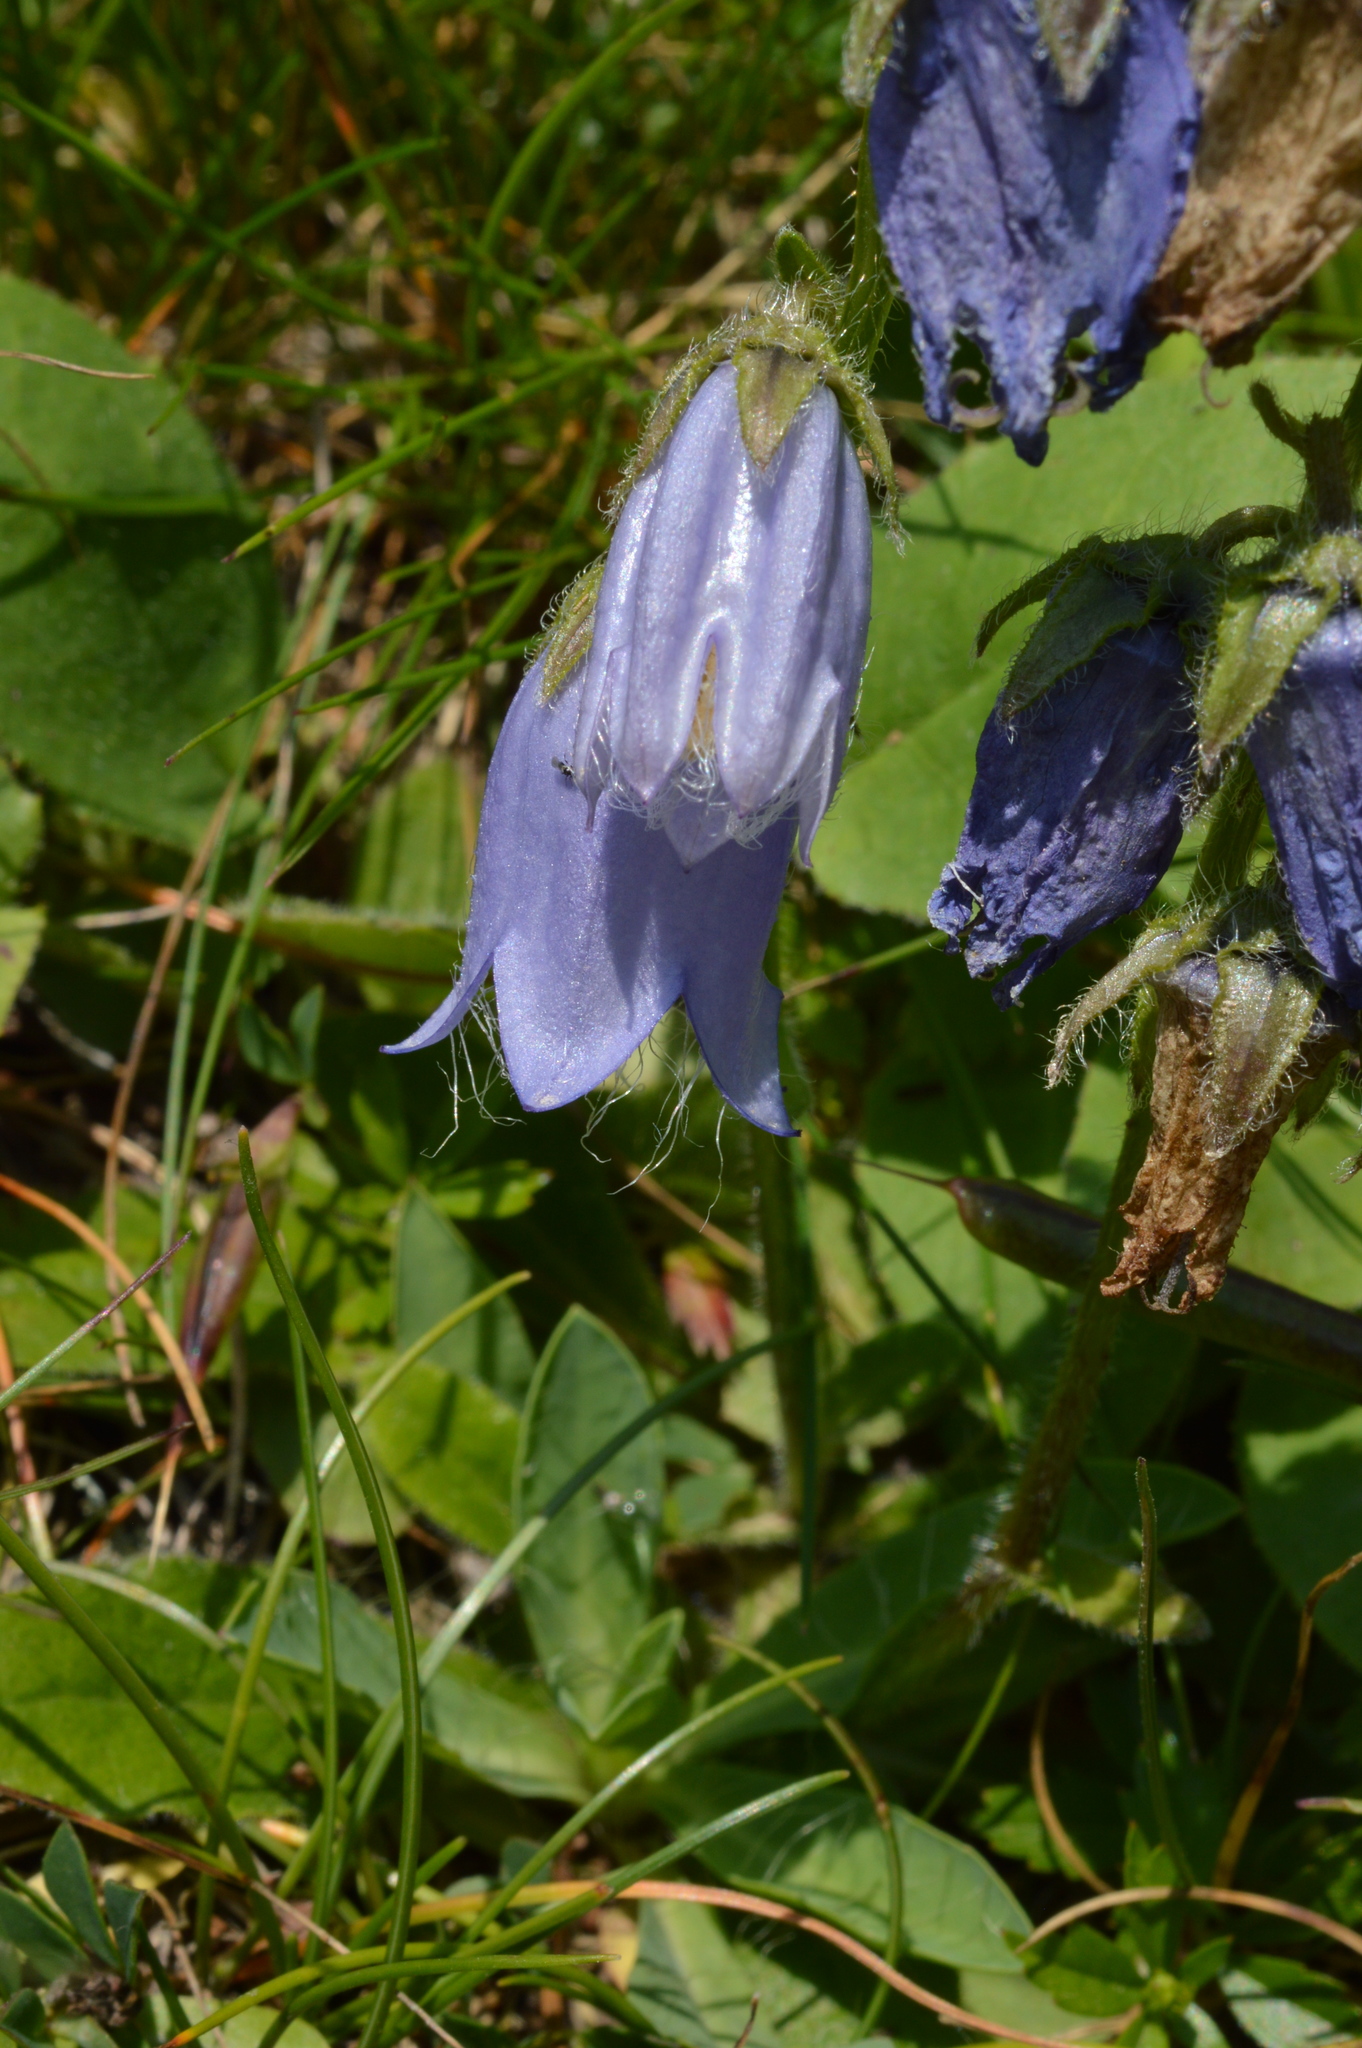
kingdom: Plantae
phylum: Tracheophyta
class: Magnoliopsida
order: Asterales
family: Campanulaceae
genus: Campanula
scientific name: Campanula barbata
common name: Bearded bellflower
